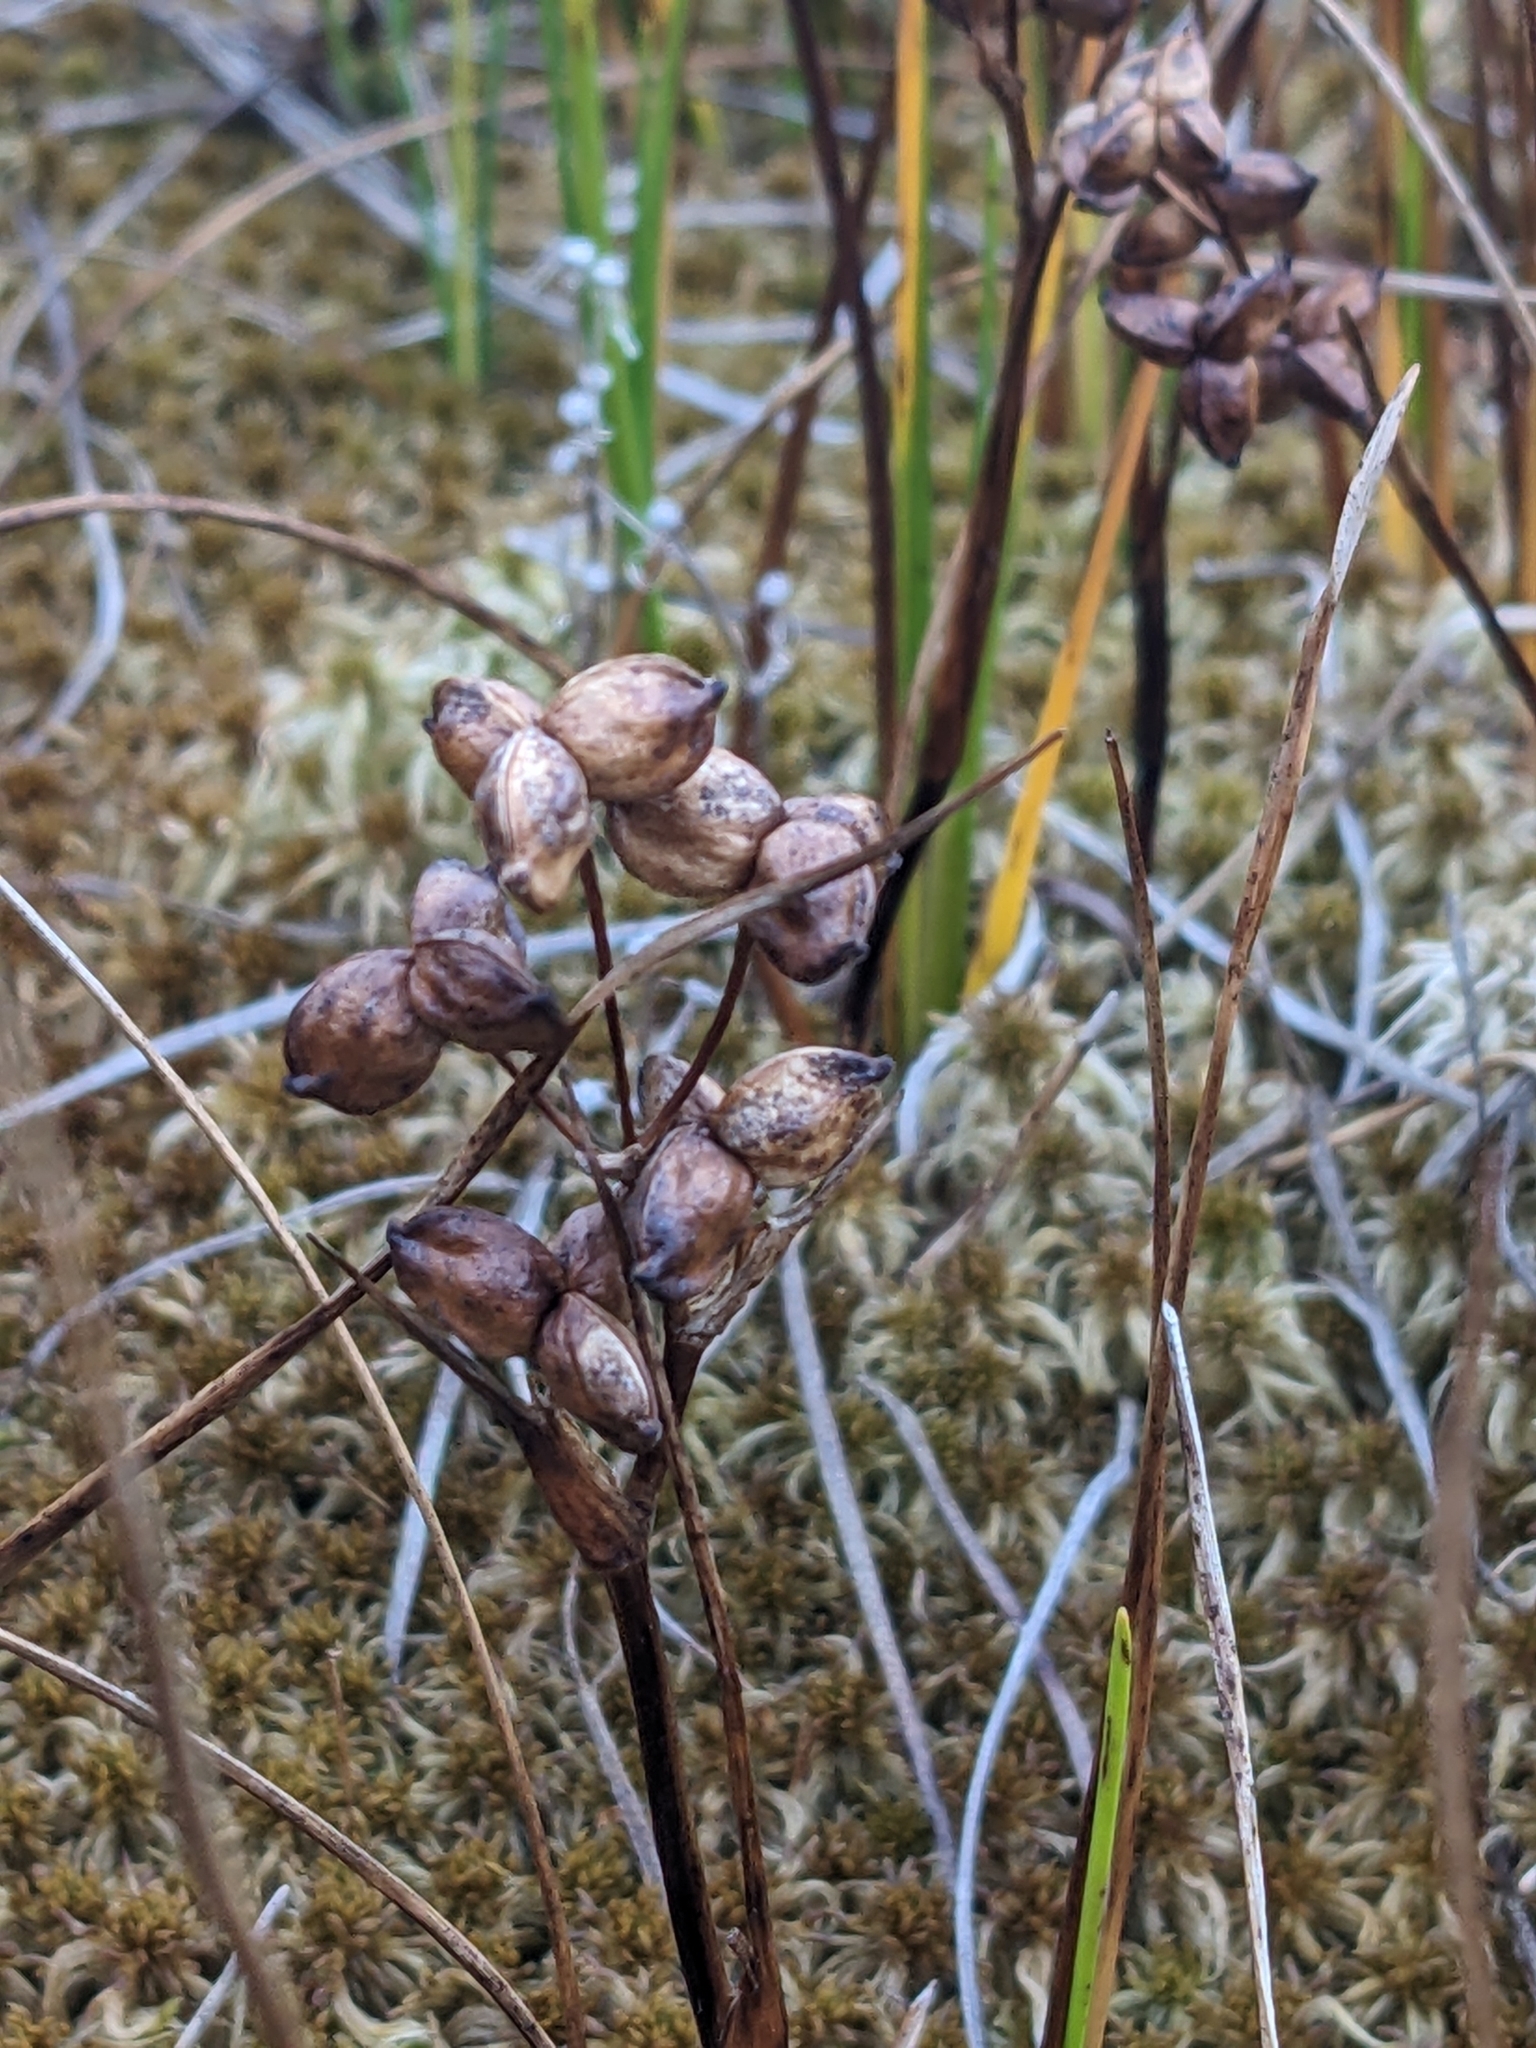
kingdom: Plantae
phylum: Tracheophyta
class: Liliopsida
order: Alismatales
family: Scheuchzeriaceae
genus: Scheuchzeria
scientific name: Scheuchzeria palustris
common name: Rannoch-rush
